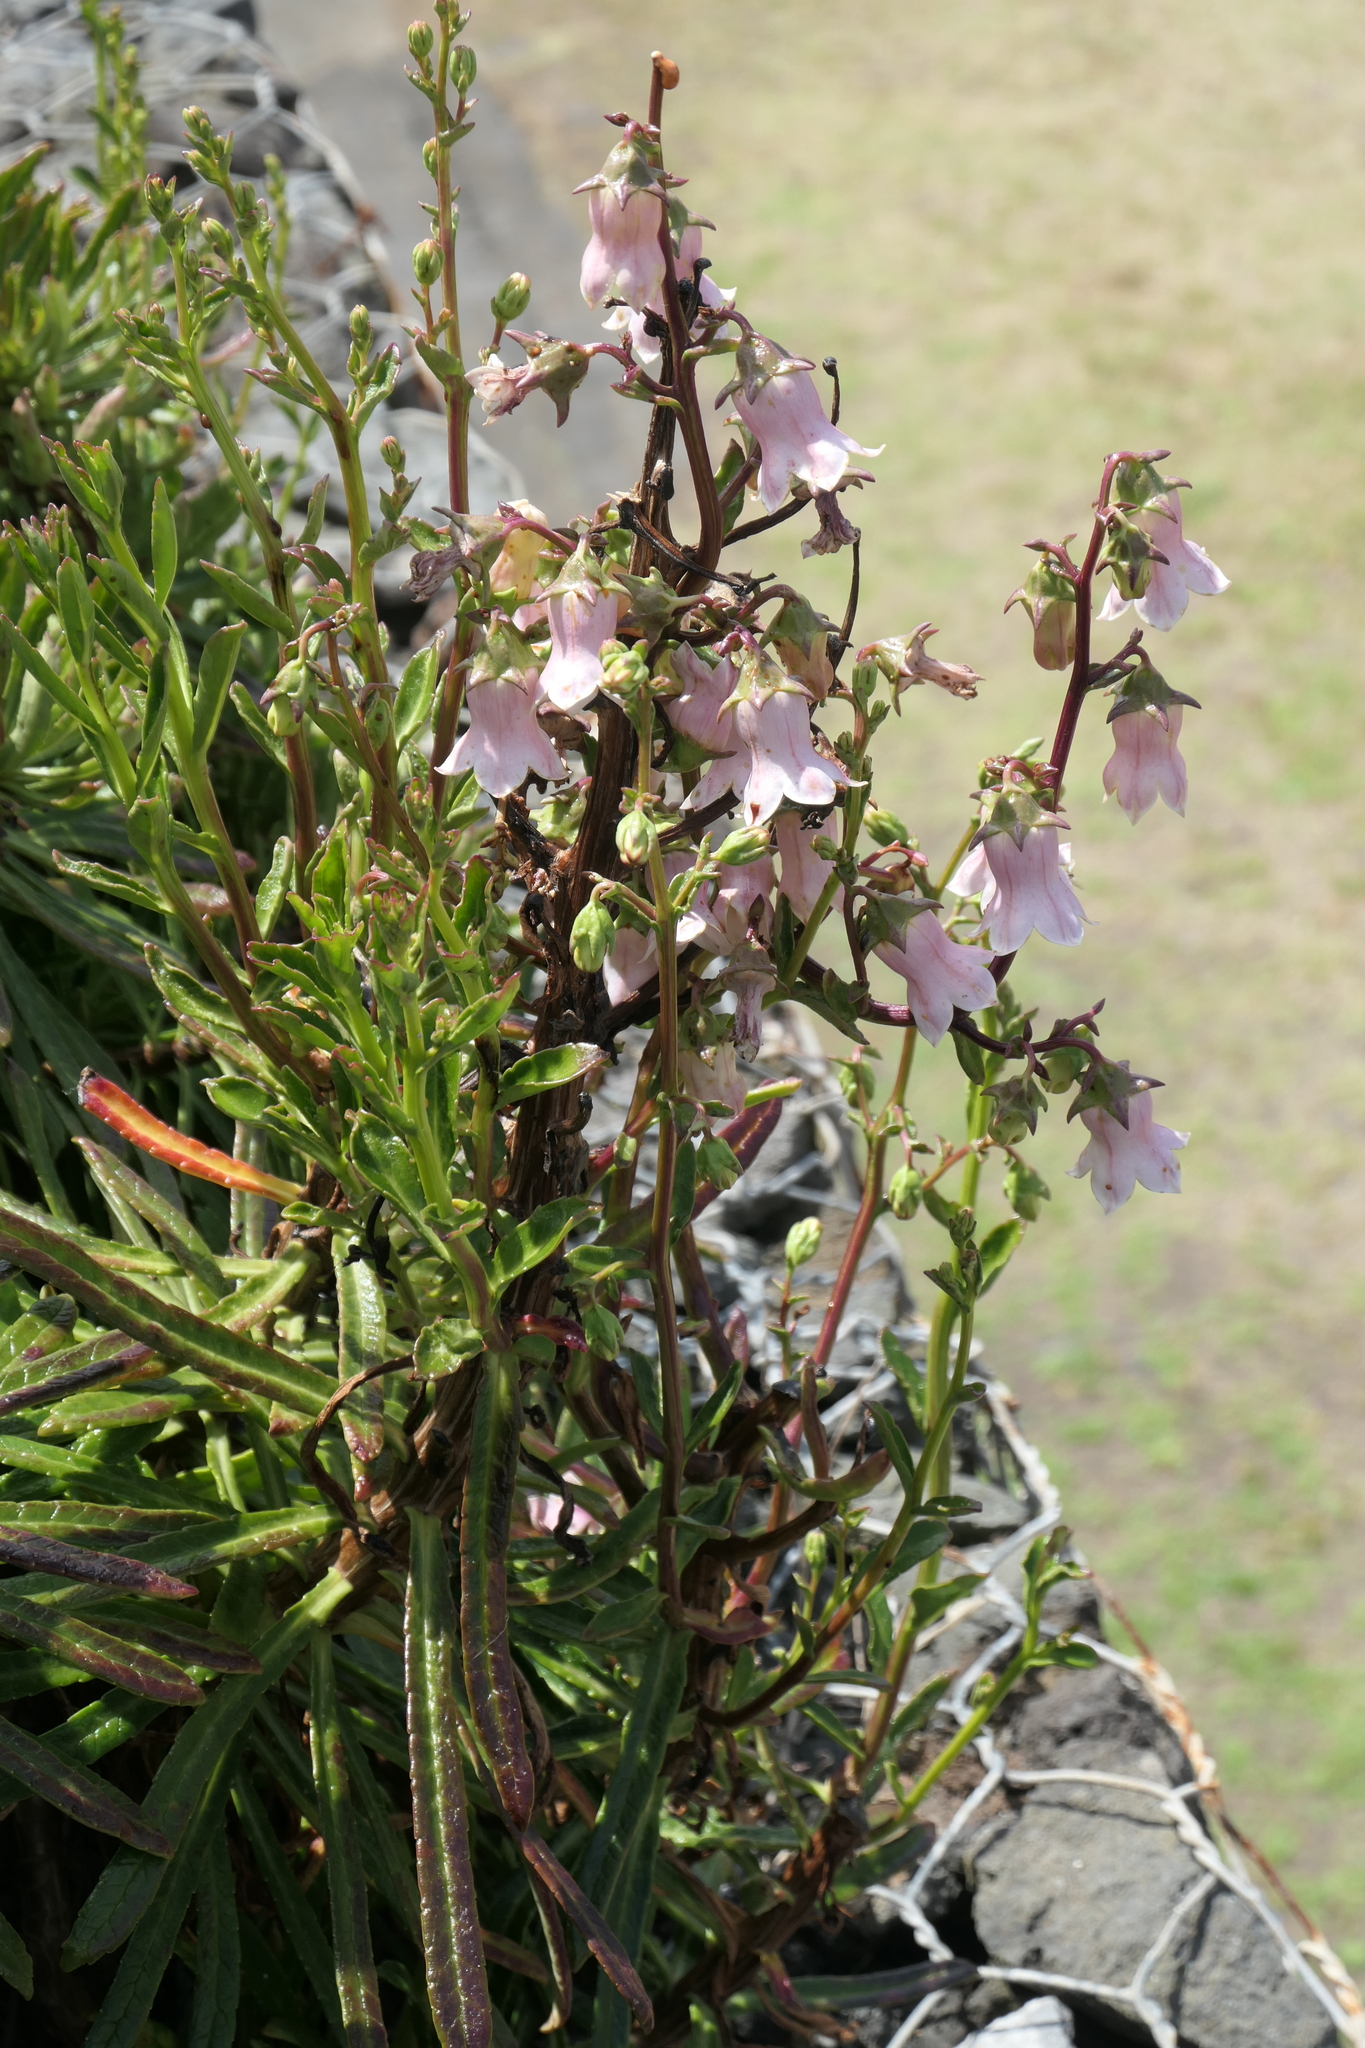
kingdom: Plantae
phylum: Tracheophyta
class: Magnoliopsida
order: Asterales
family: Campanulaceae
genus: Campanula
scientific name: Campanula vidalii
